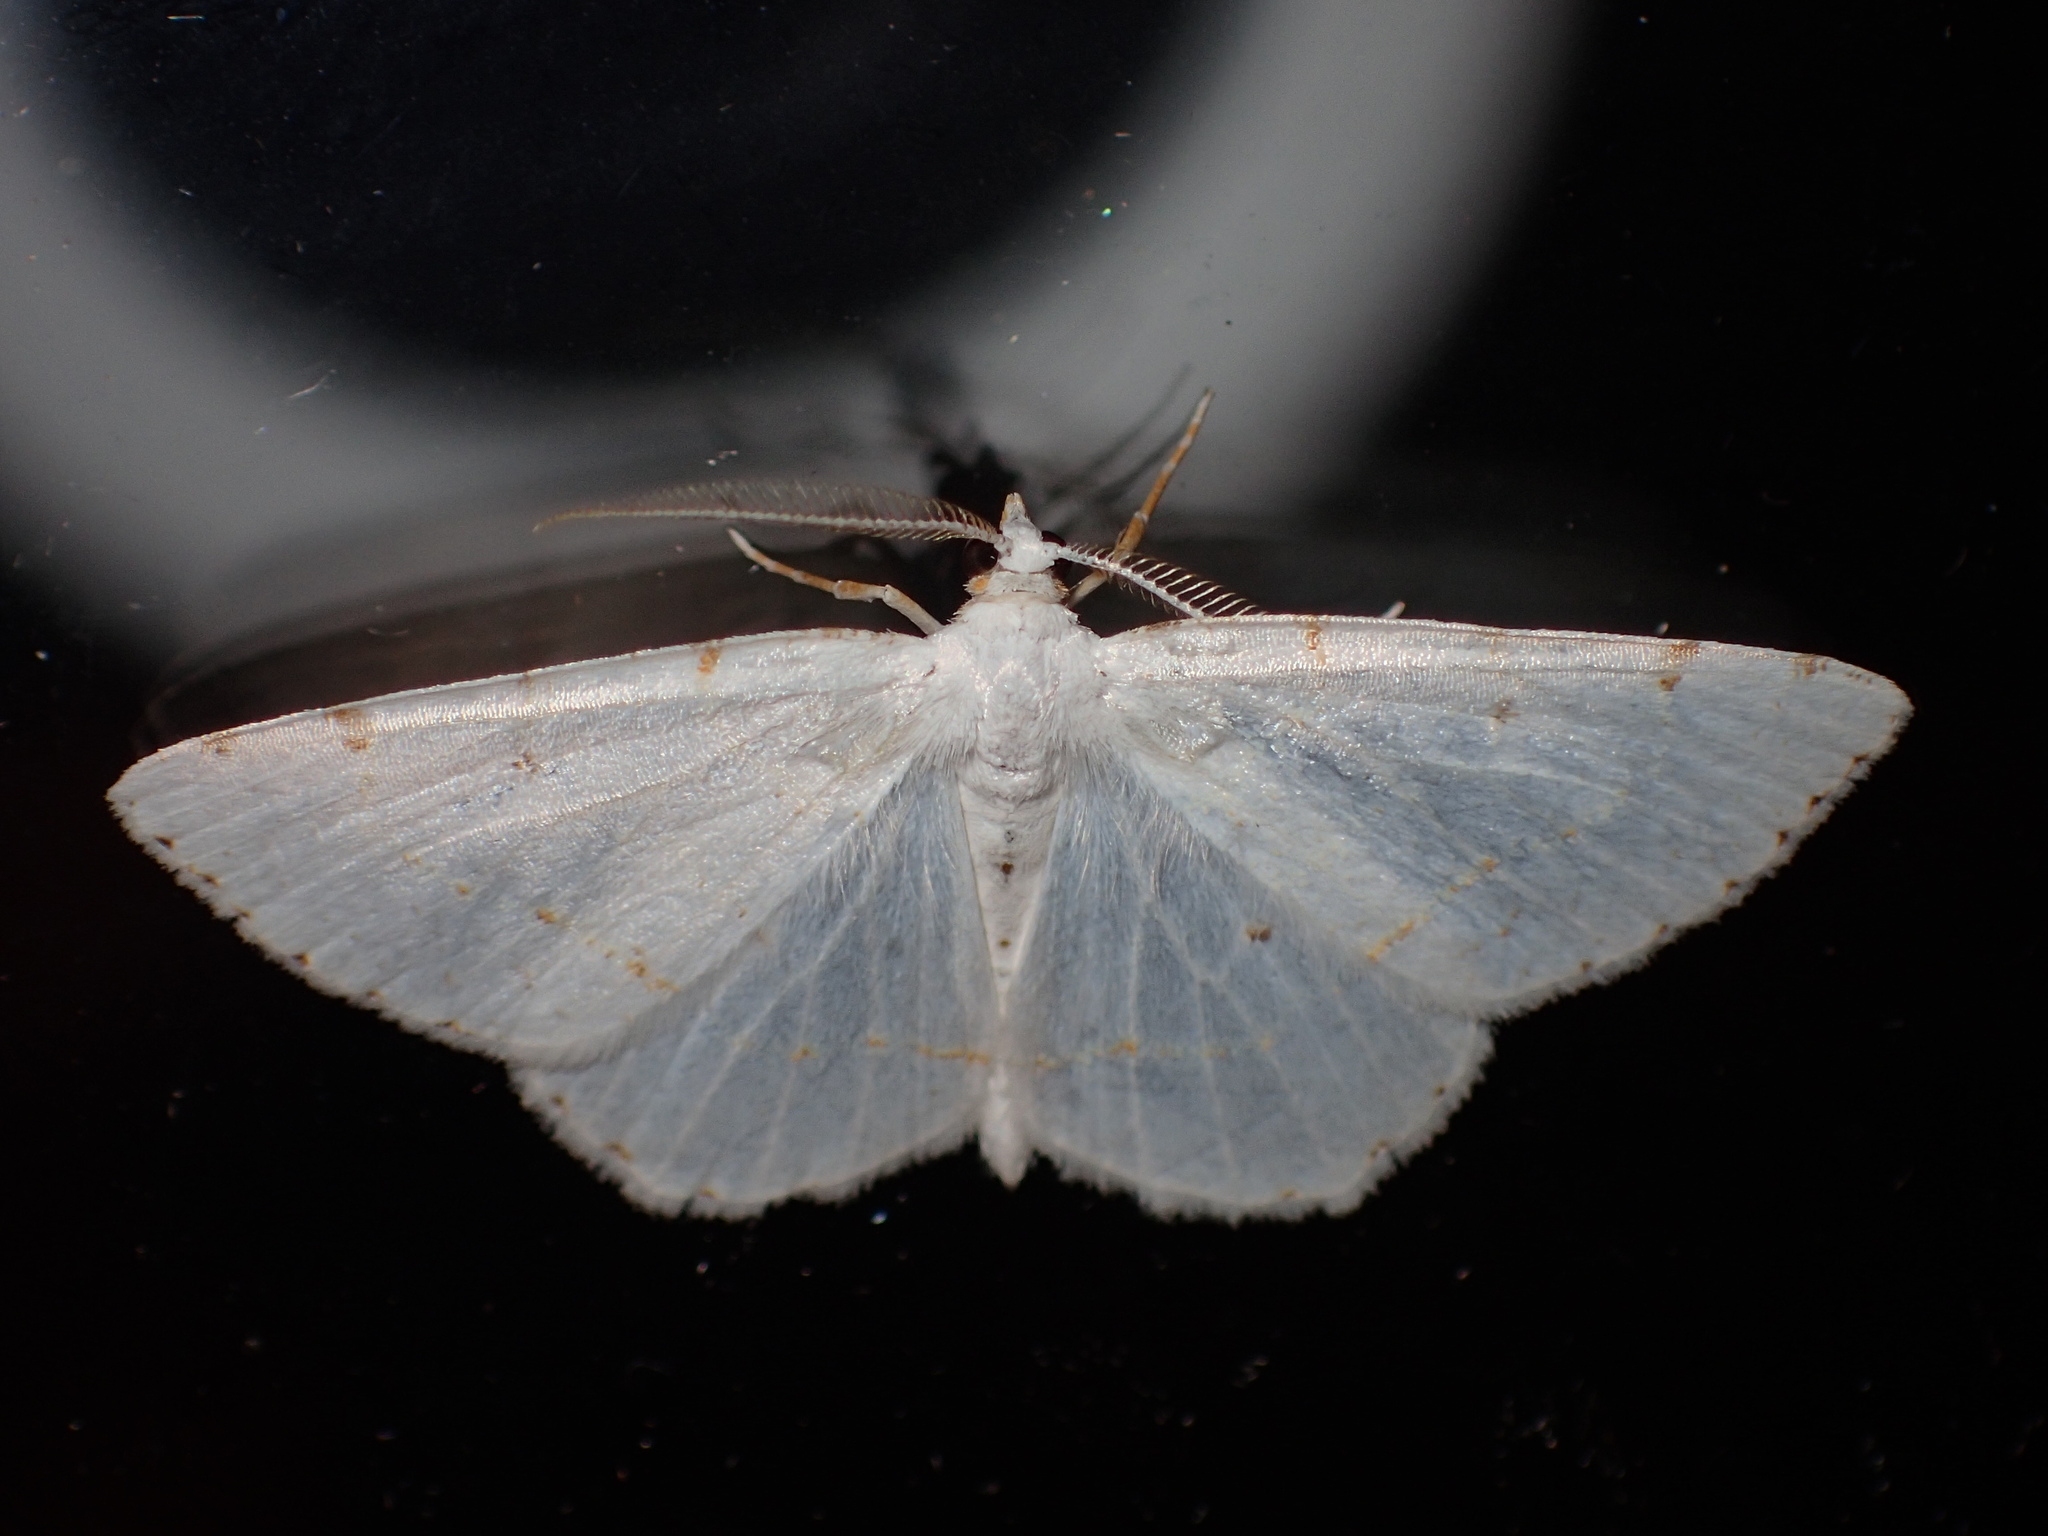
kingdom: Animalia
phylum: Arthropoda
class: Insecta
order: Lepidoptera
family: Geometridae
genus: Macaria
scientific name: Macaria pustularia
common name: Lesser maple spanworm moth
